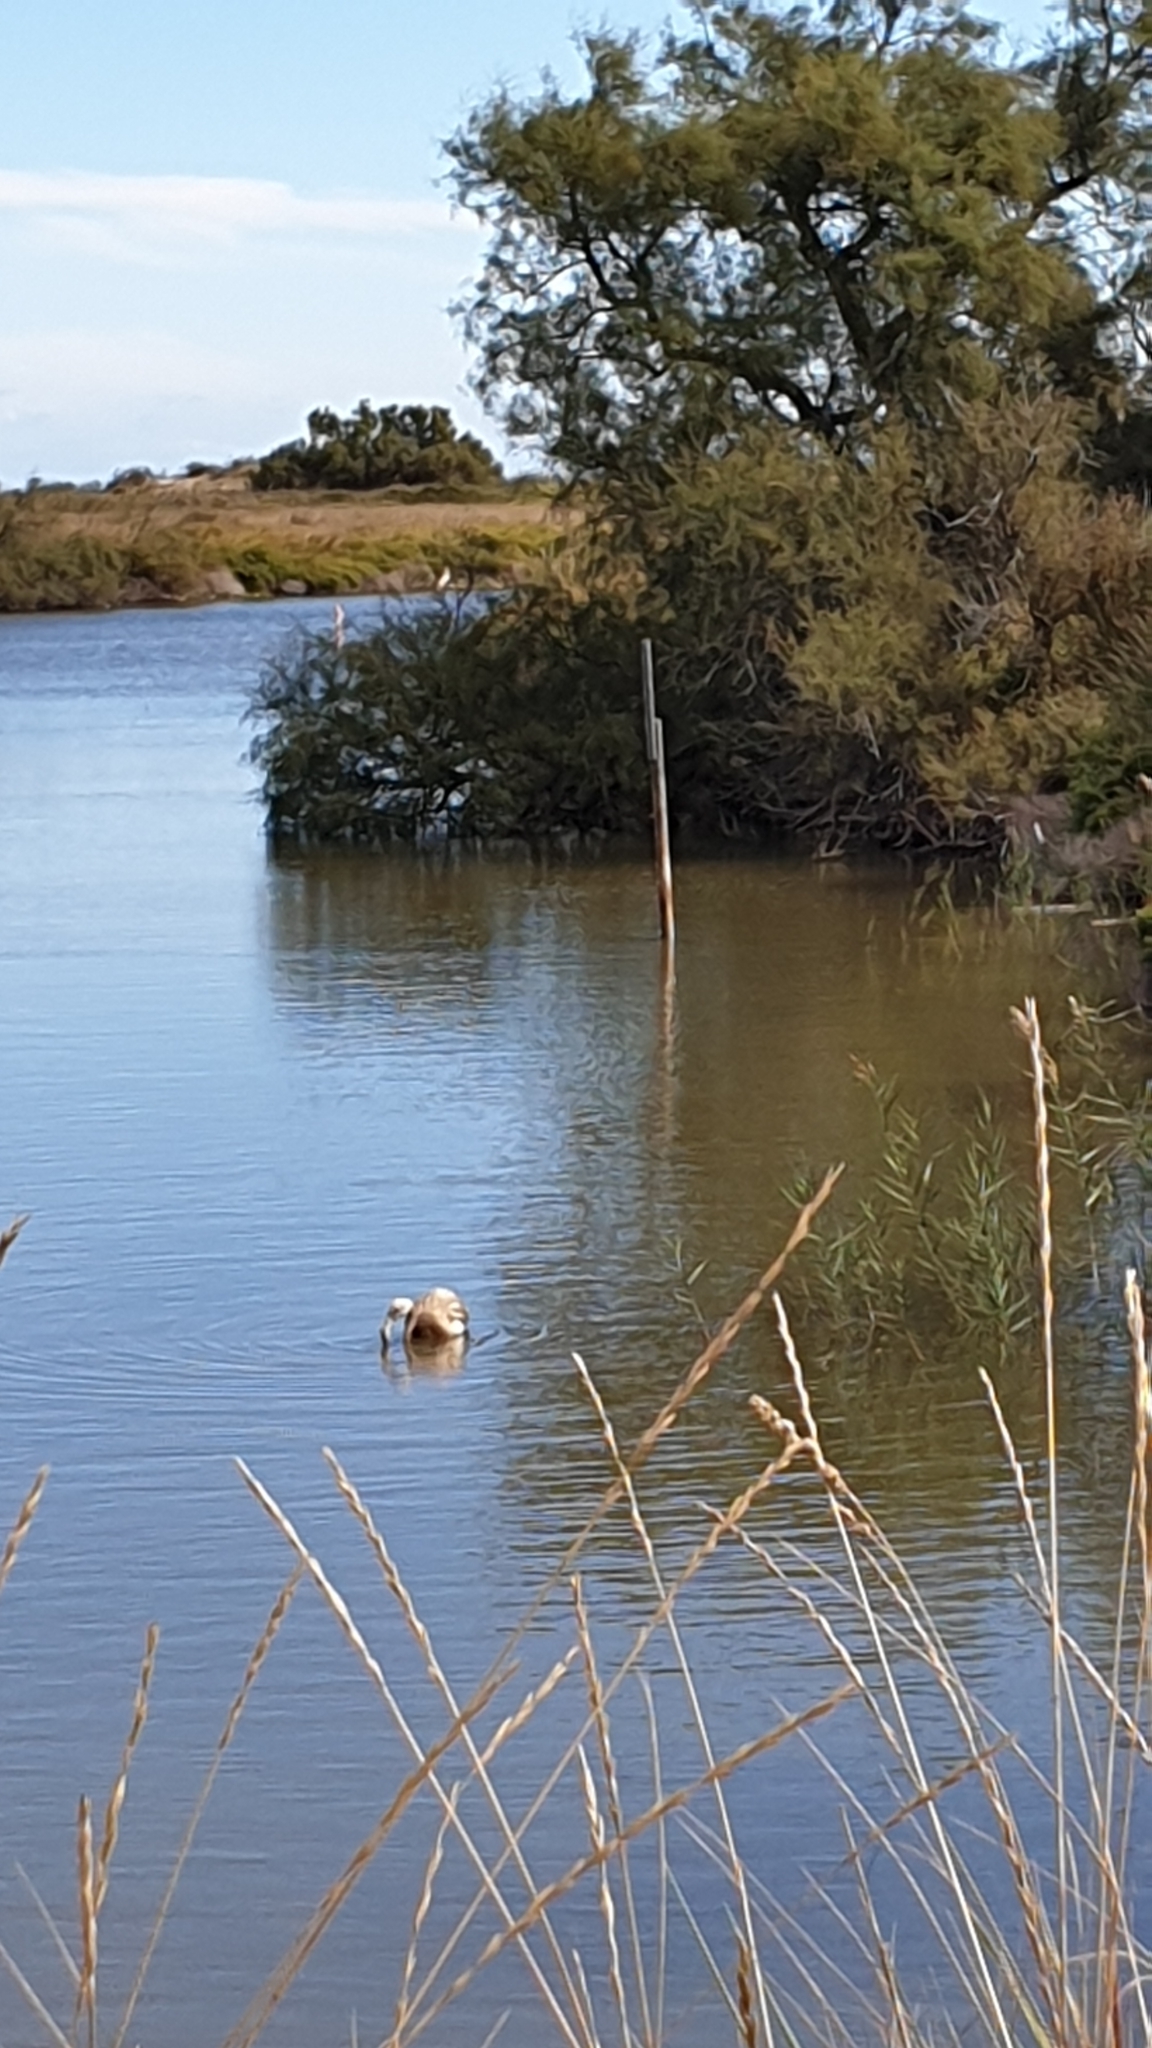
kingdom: Animalia
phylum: Chordata
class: Aves
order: Phoenicopteriformes
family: Phoenicopteridae
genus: Phoenicopterus
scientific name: Phoenicopterus roseus
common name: Greater flamingo
